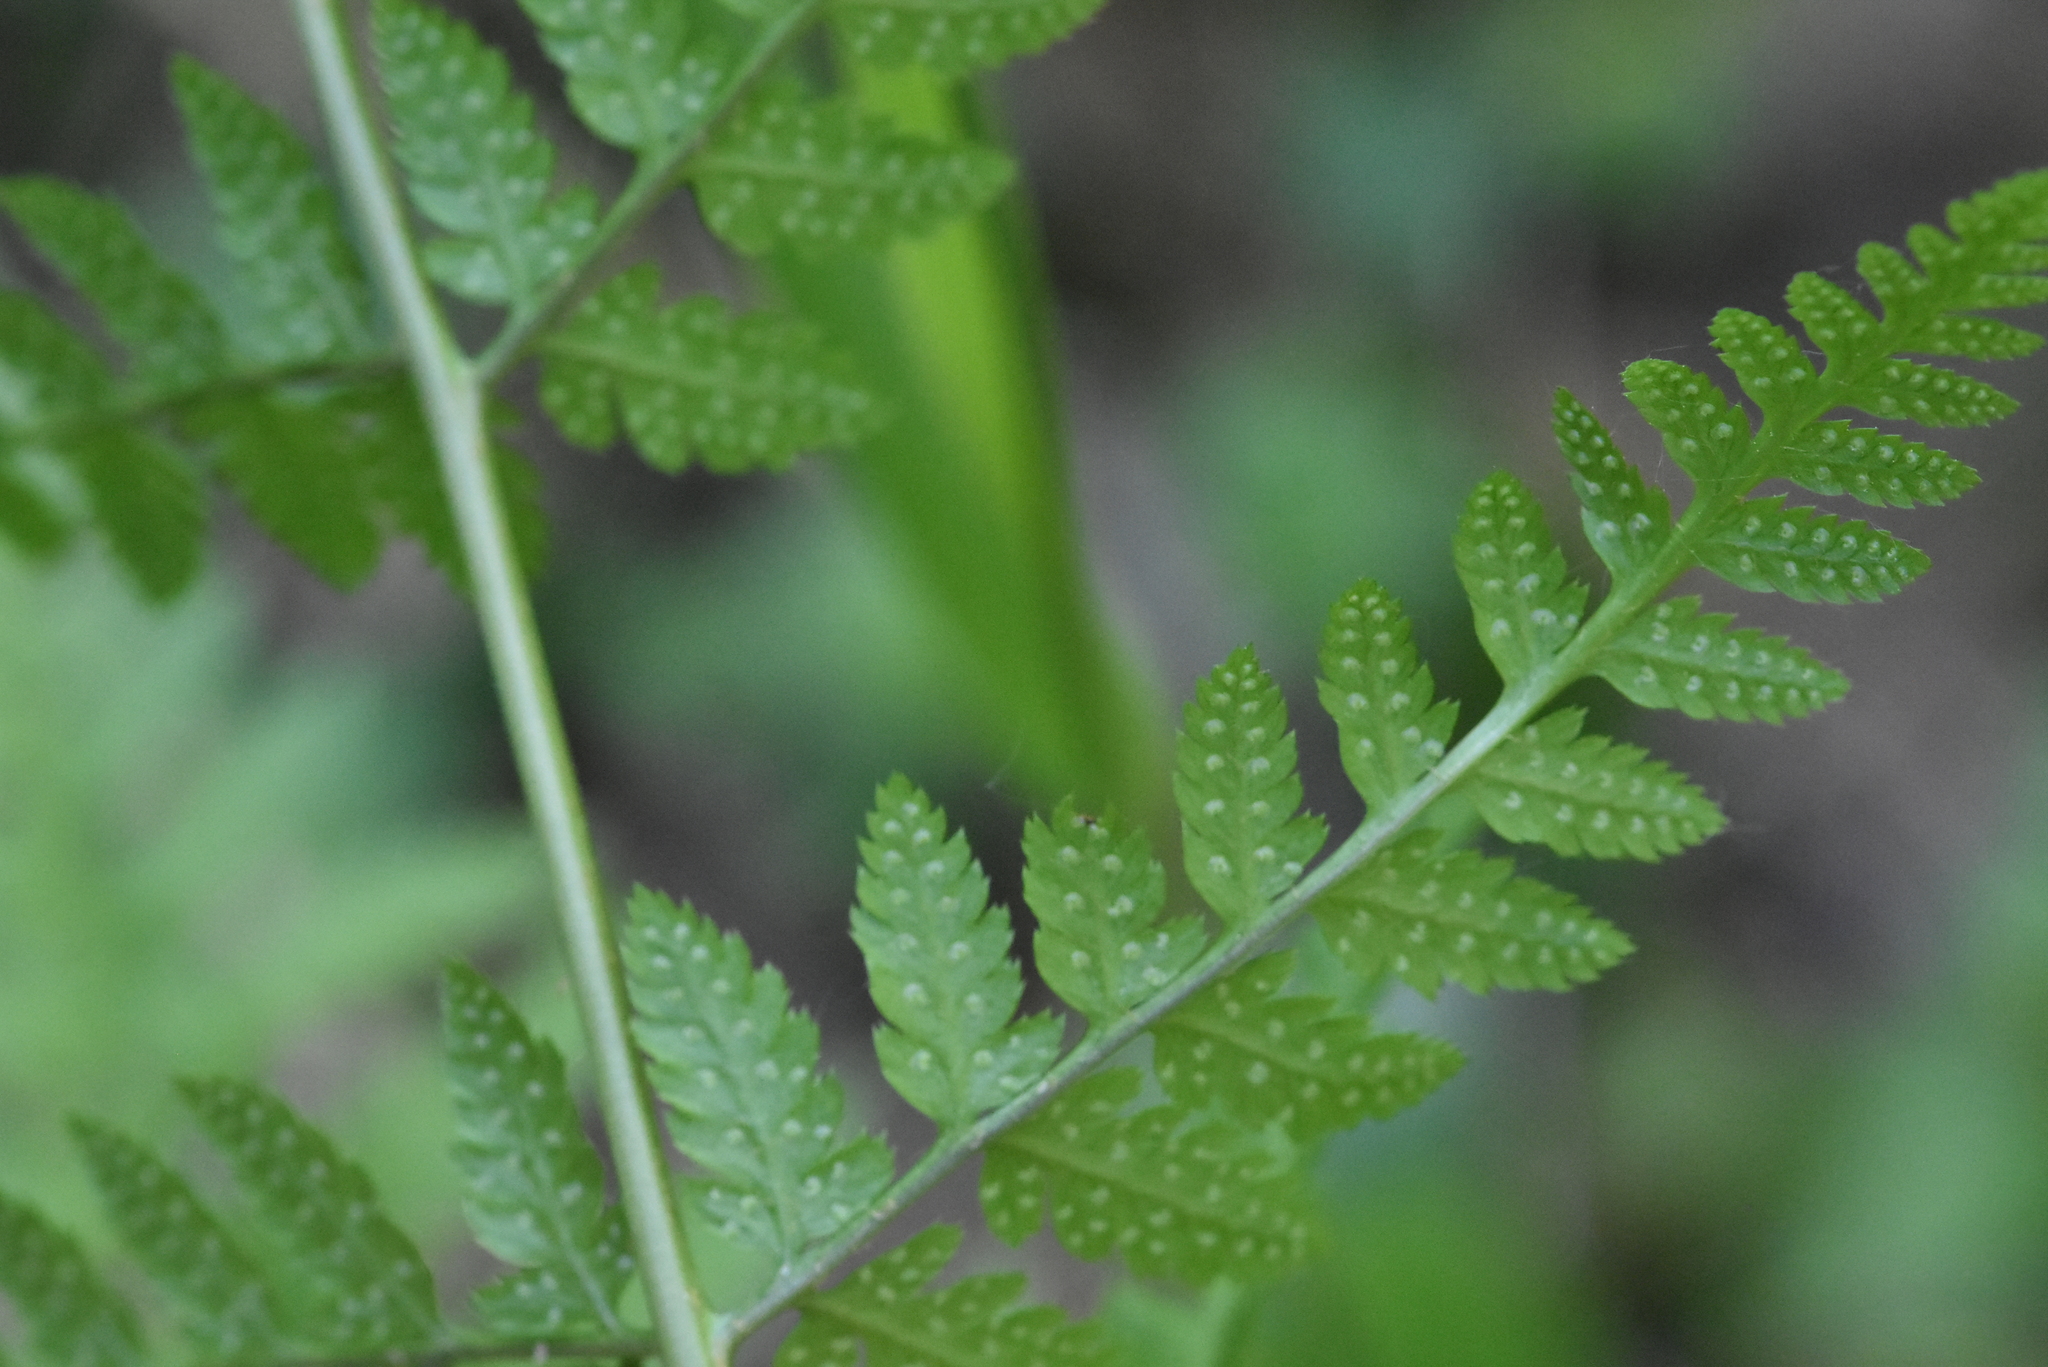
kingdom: Plantae
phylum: Tracheophyta
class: Polypodiopsida
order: Polypodiales
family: Dryopteridaceae
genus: Dryopteris
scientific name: Dryopteris carthusiana
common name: Narrow buckler-fern
